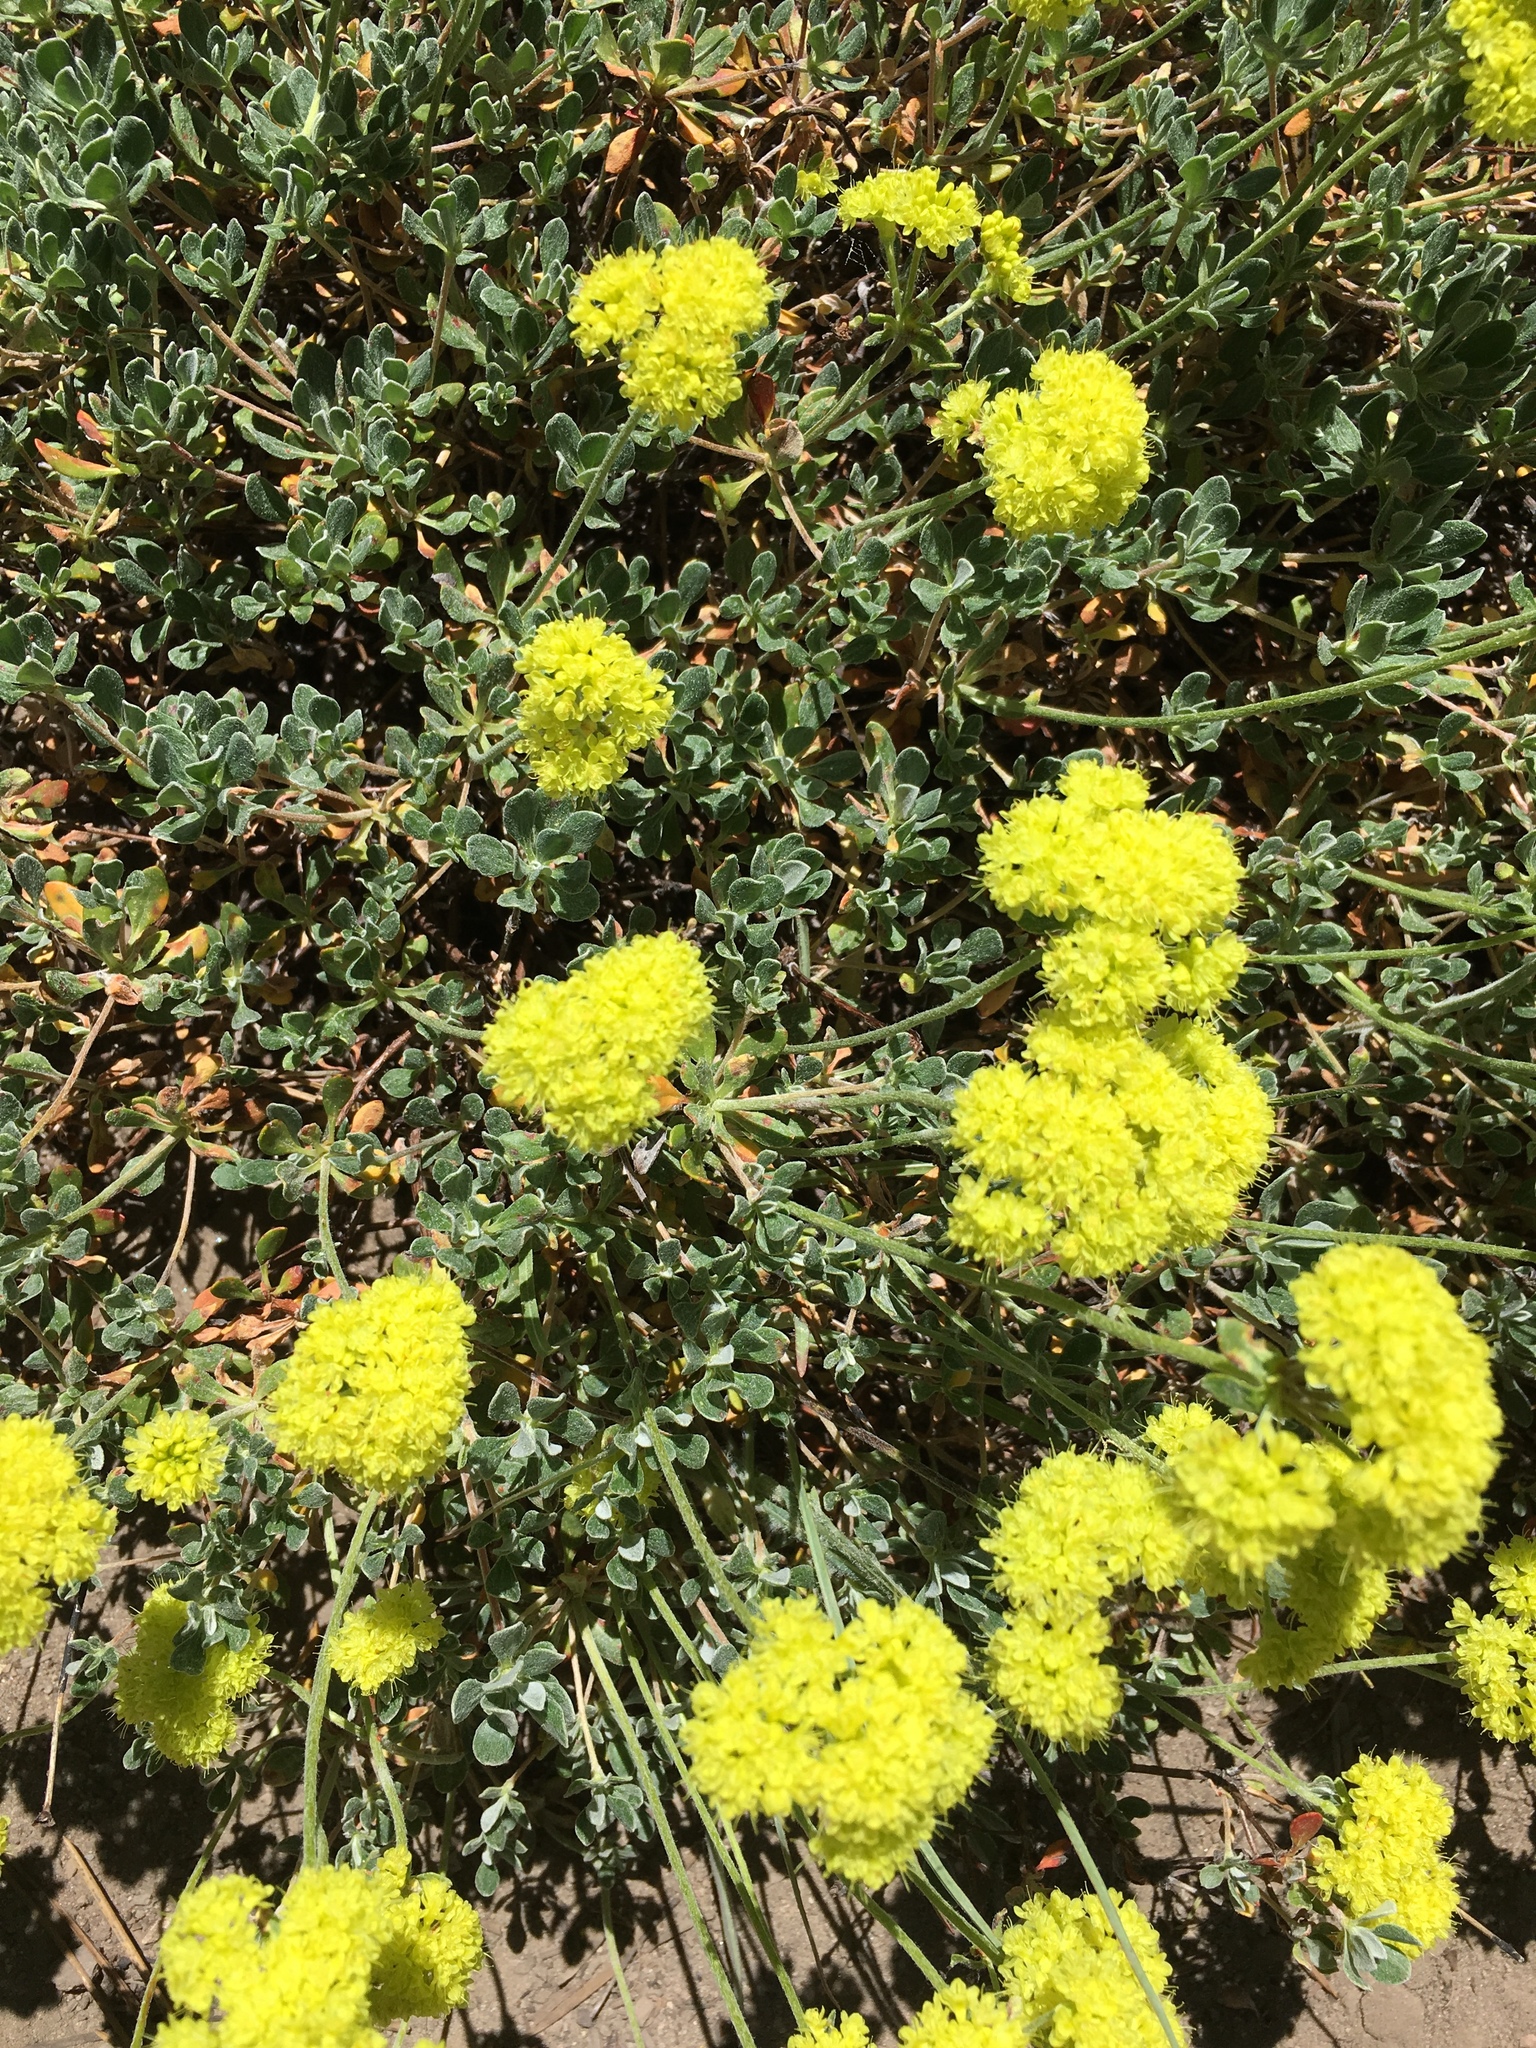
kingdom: Plantae
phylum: Tracheophyta
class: Magnoliopsida
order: Caryophyllales
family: Polygonaceae
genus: Eriogonum
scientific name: Eriogonum umbellatum
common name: Sulfur-buckwheat
